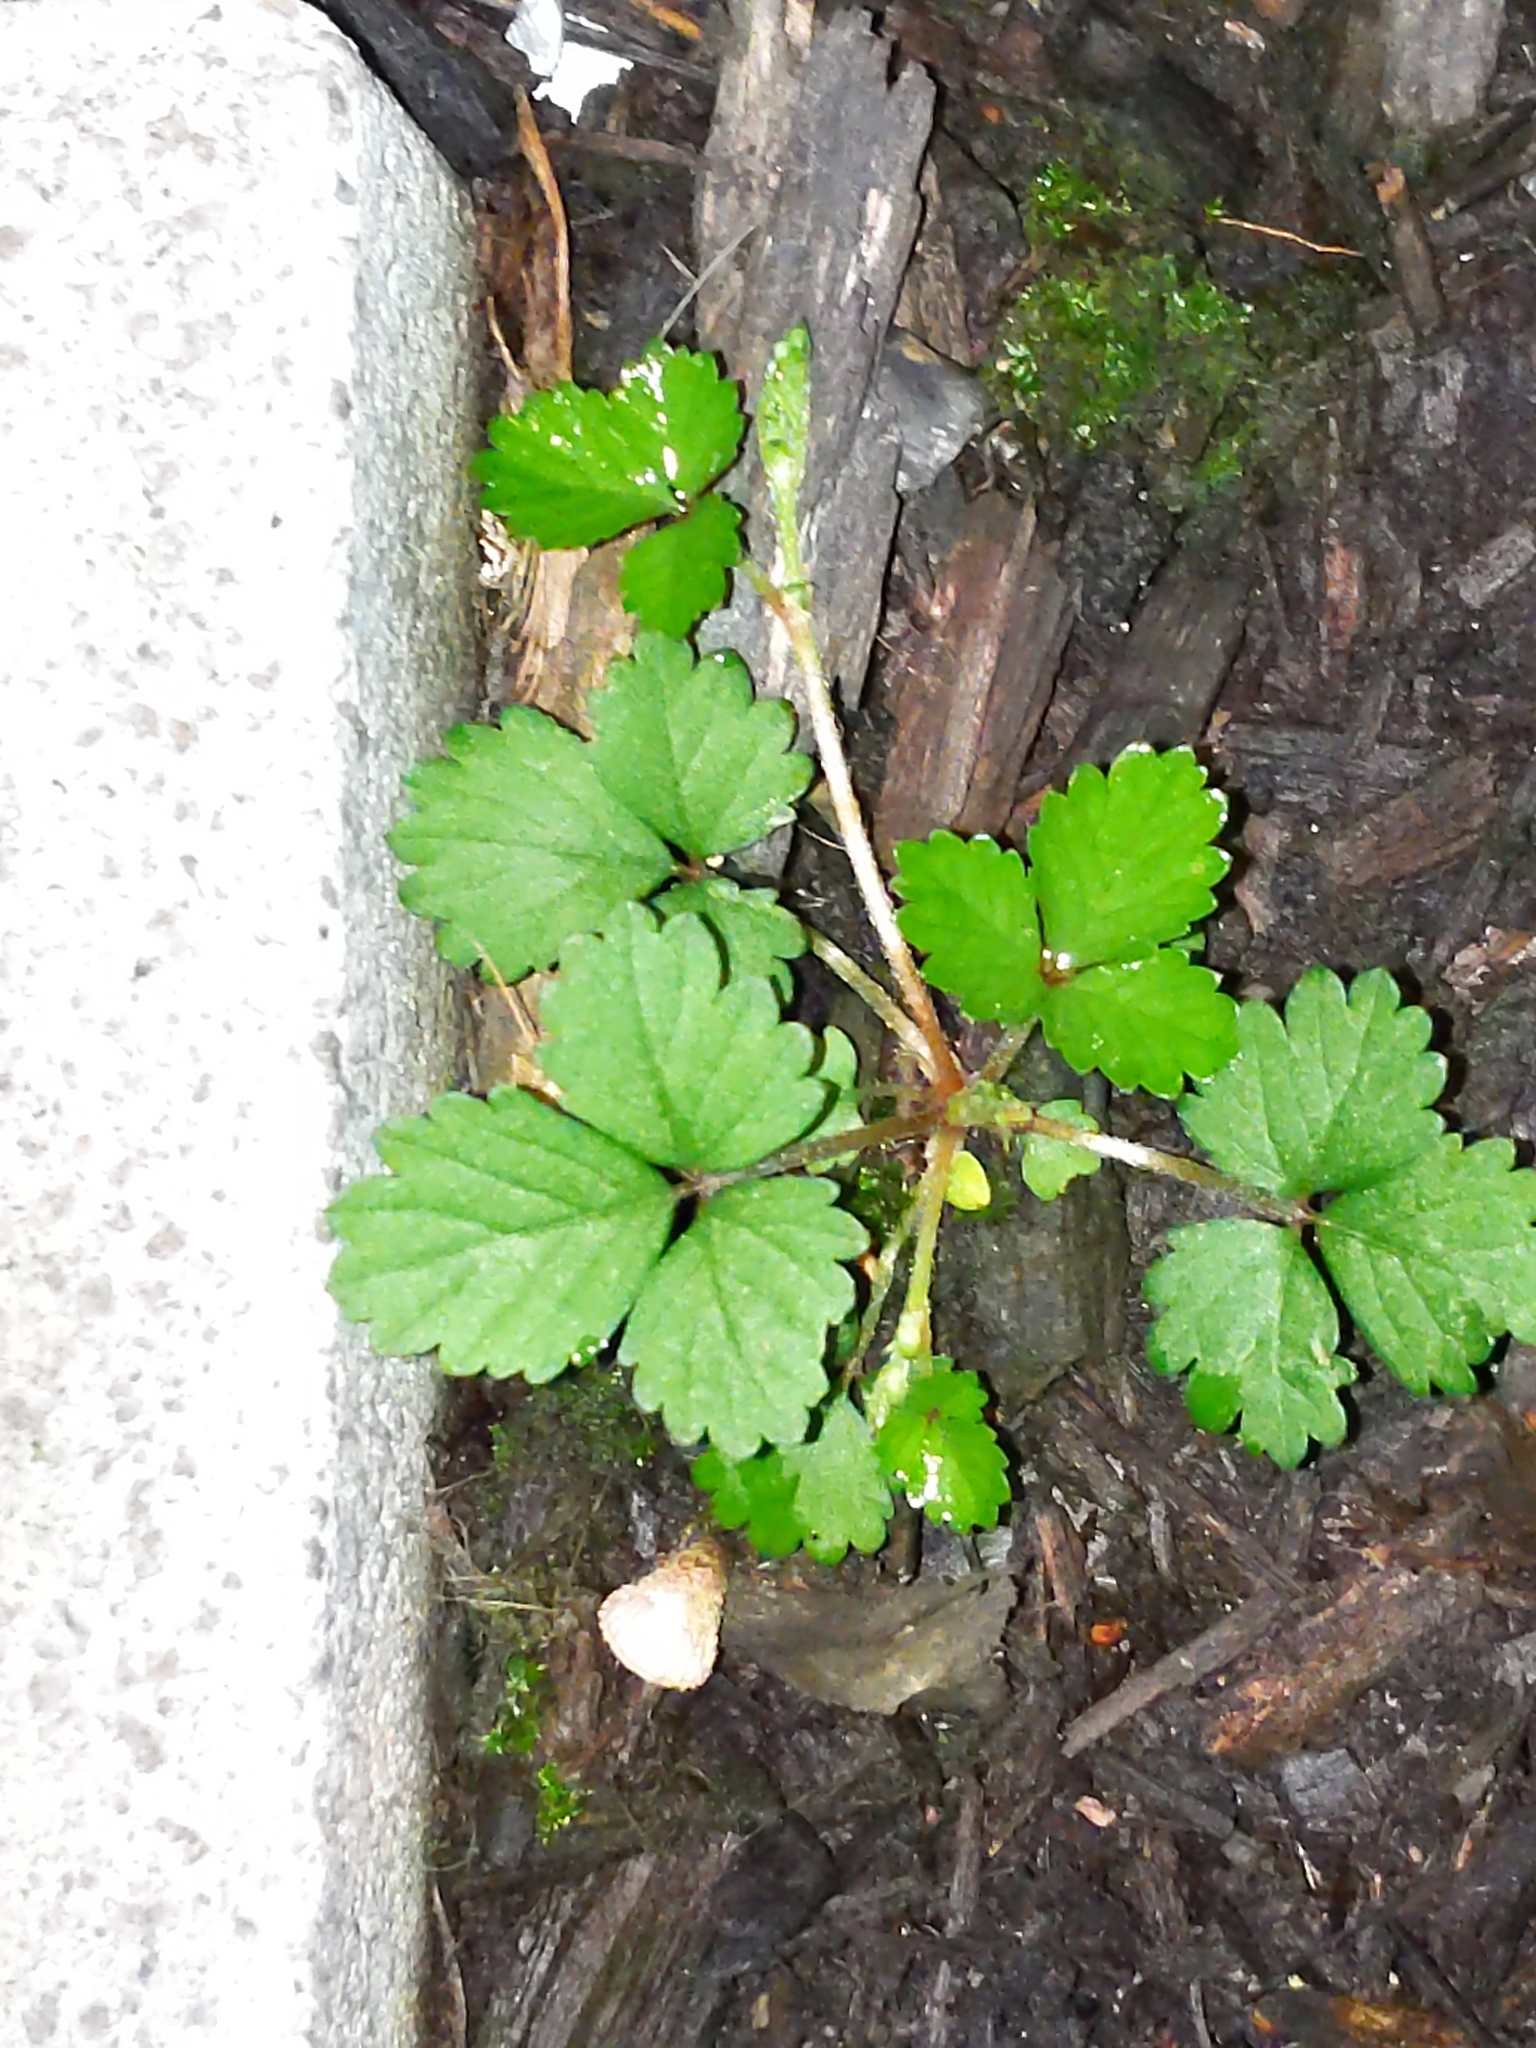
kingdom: Plantae
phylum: Tracheophyta
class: Magnoliopsida
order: Rosales
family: Rosaceae
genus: Potentilla
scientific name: Potentilla indica
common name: Yellow-flowered strawberry
